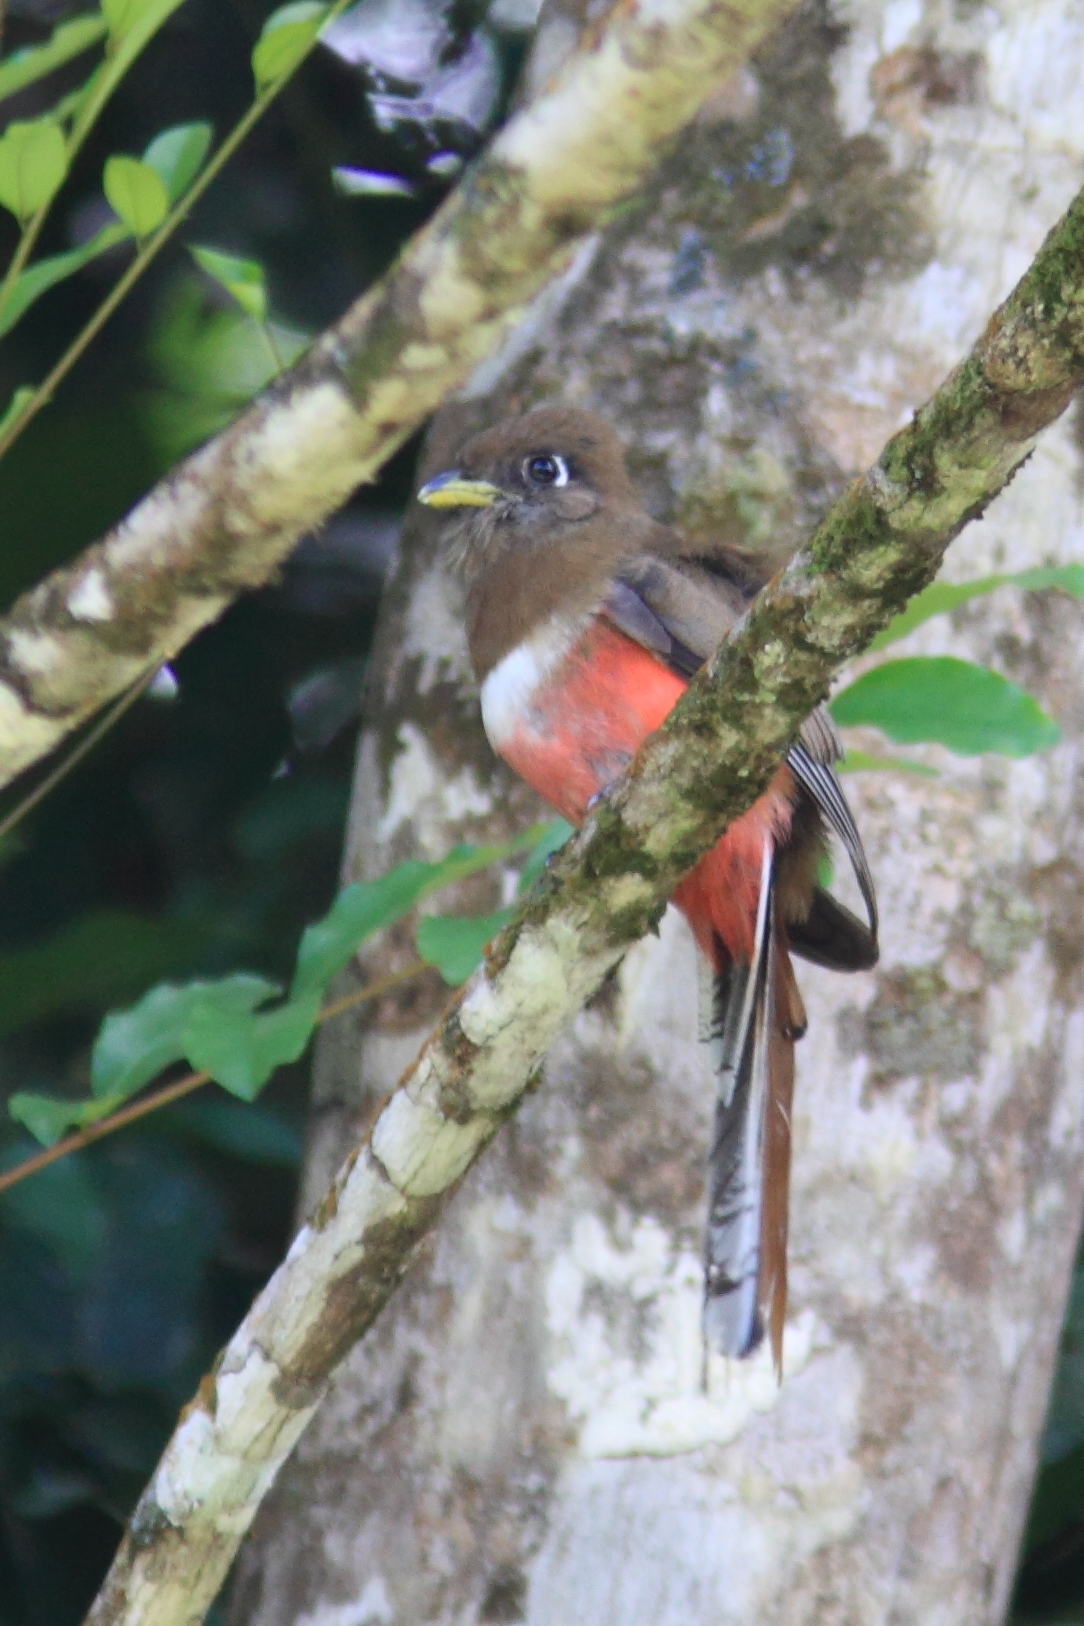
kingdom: Animalia
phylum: Chordata
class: Aves
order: Trogoniformes
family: Trogonidae
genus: Trogon
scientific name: Trogon collaris
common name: Collared trogon
